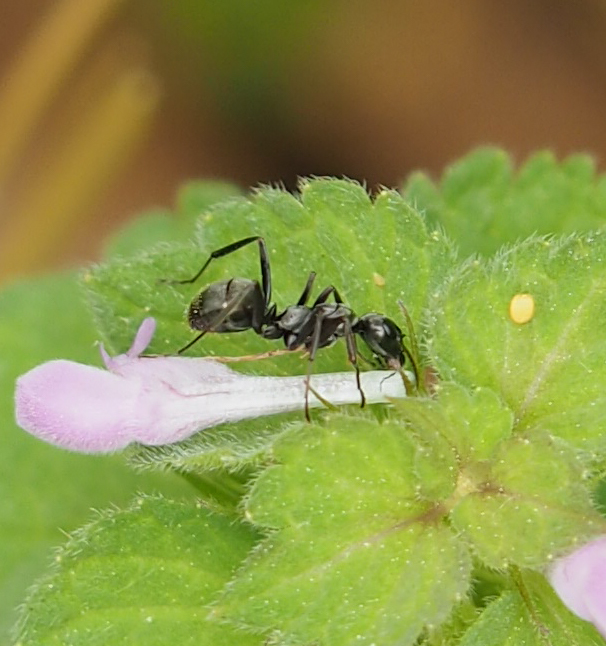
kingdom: Animalia
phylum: Arthropoda
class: Insecta
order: Hymenoptera
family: Formicidae
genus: Formica
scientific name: Formica subsericea
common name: Silky field ant
